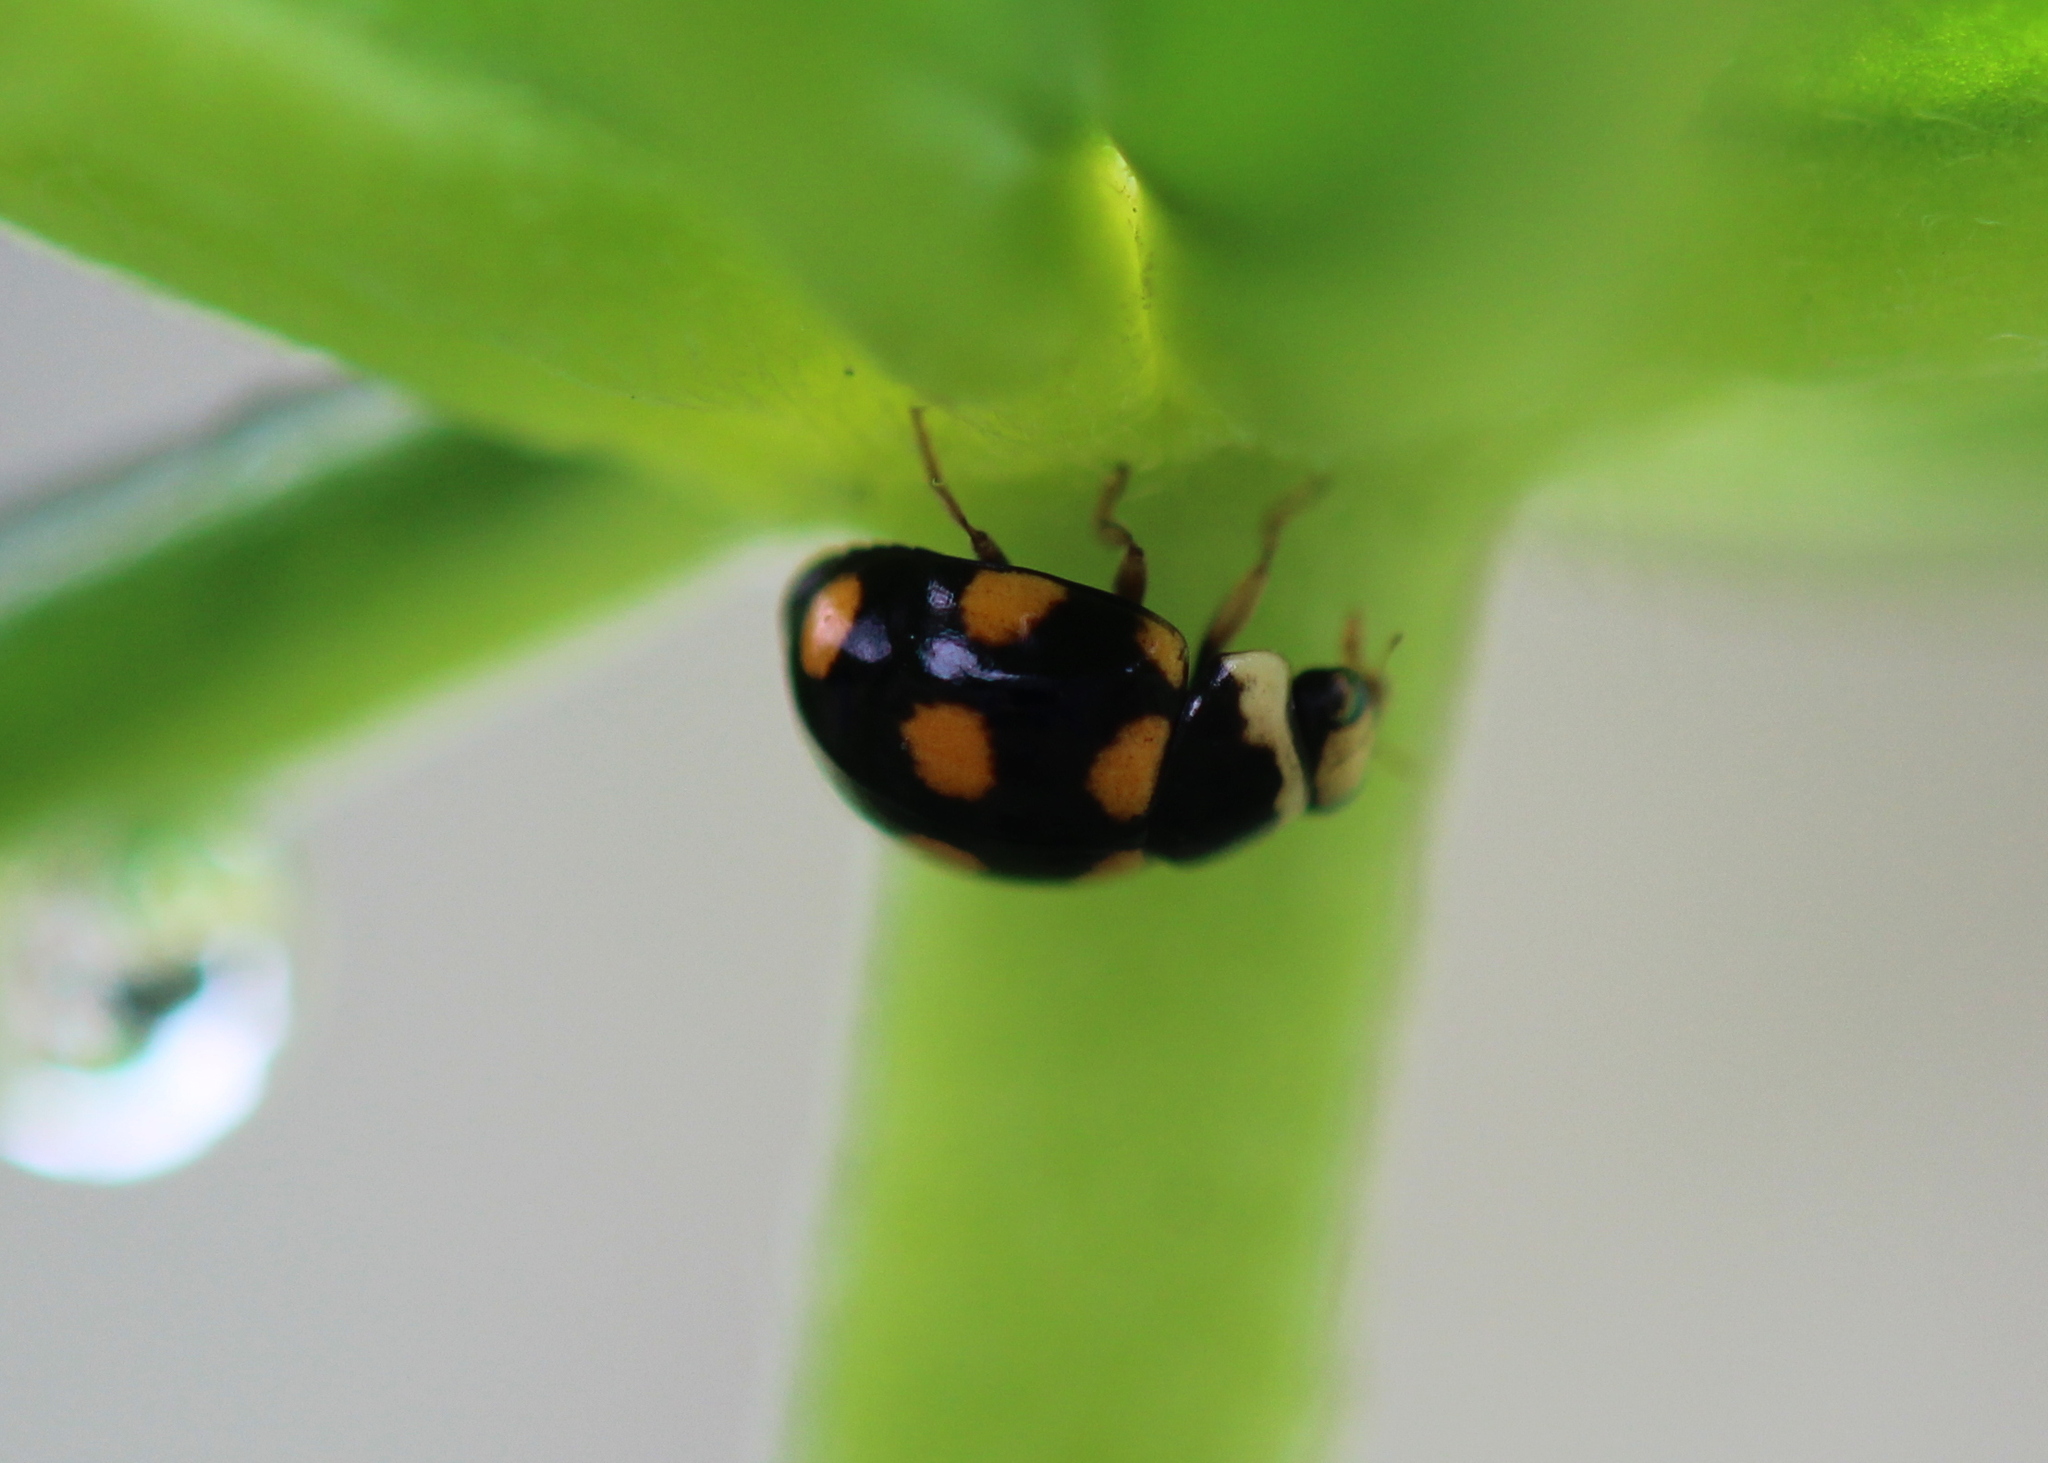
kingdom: Animalia
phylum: Arthropoda
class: Insecta
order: Coleoptera
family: Coccinellidae
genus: Brachiacantha
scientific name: Brachiacantha ursina
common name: Ursine spurleg lady beetle
